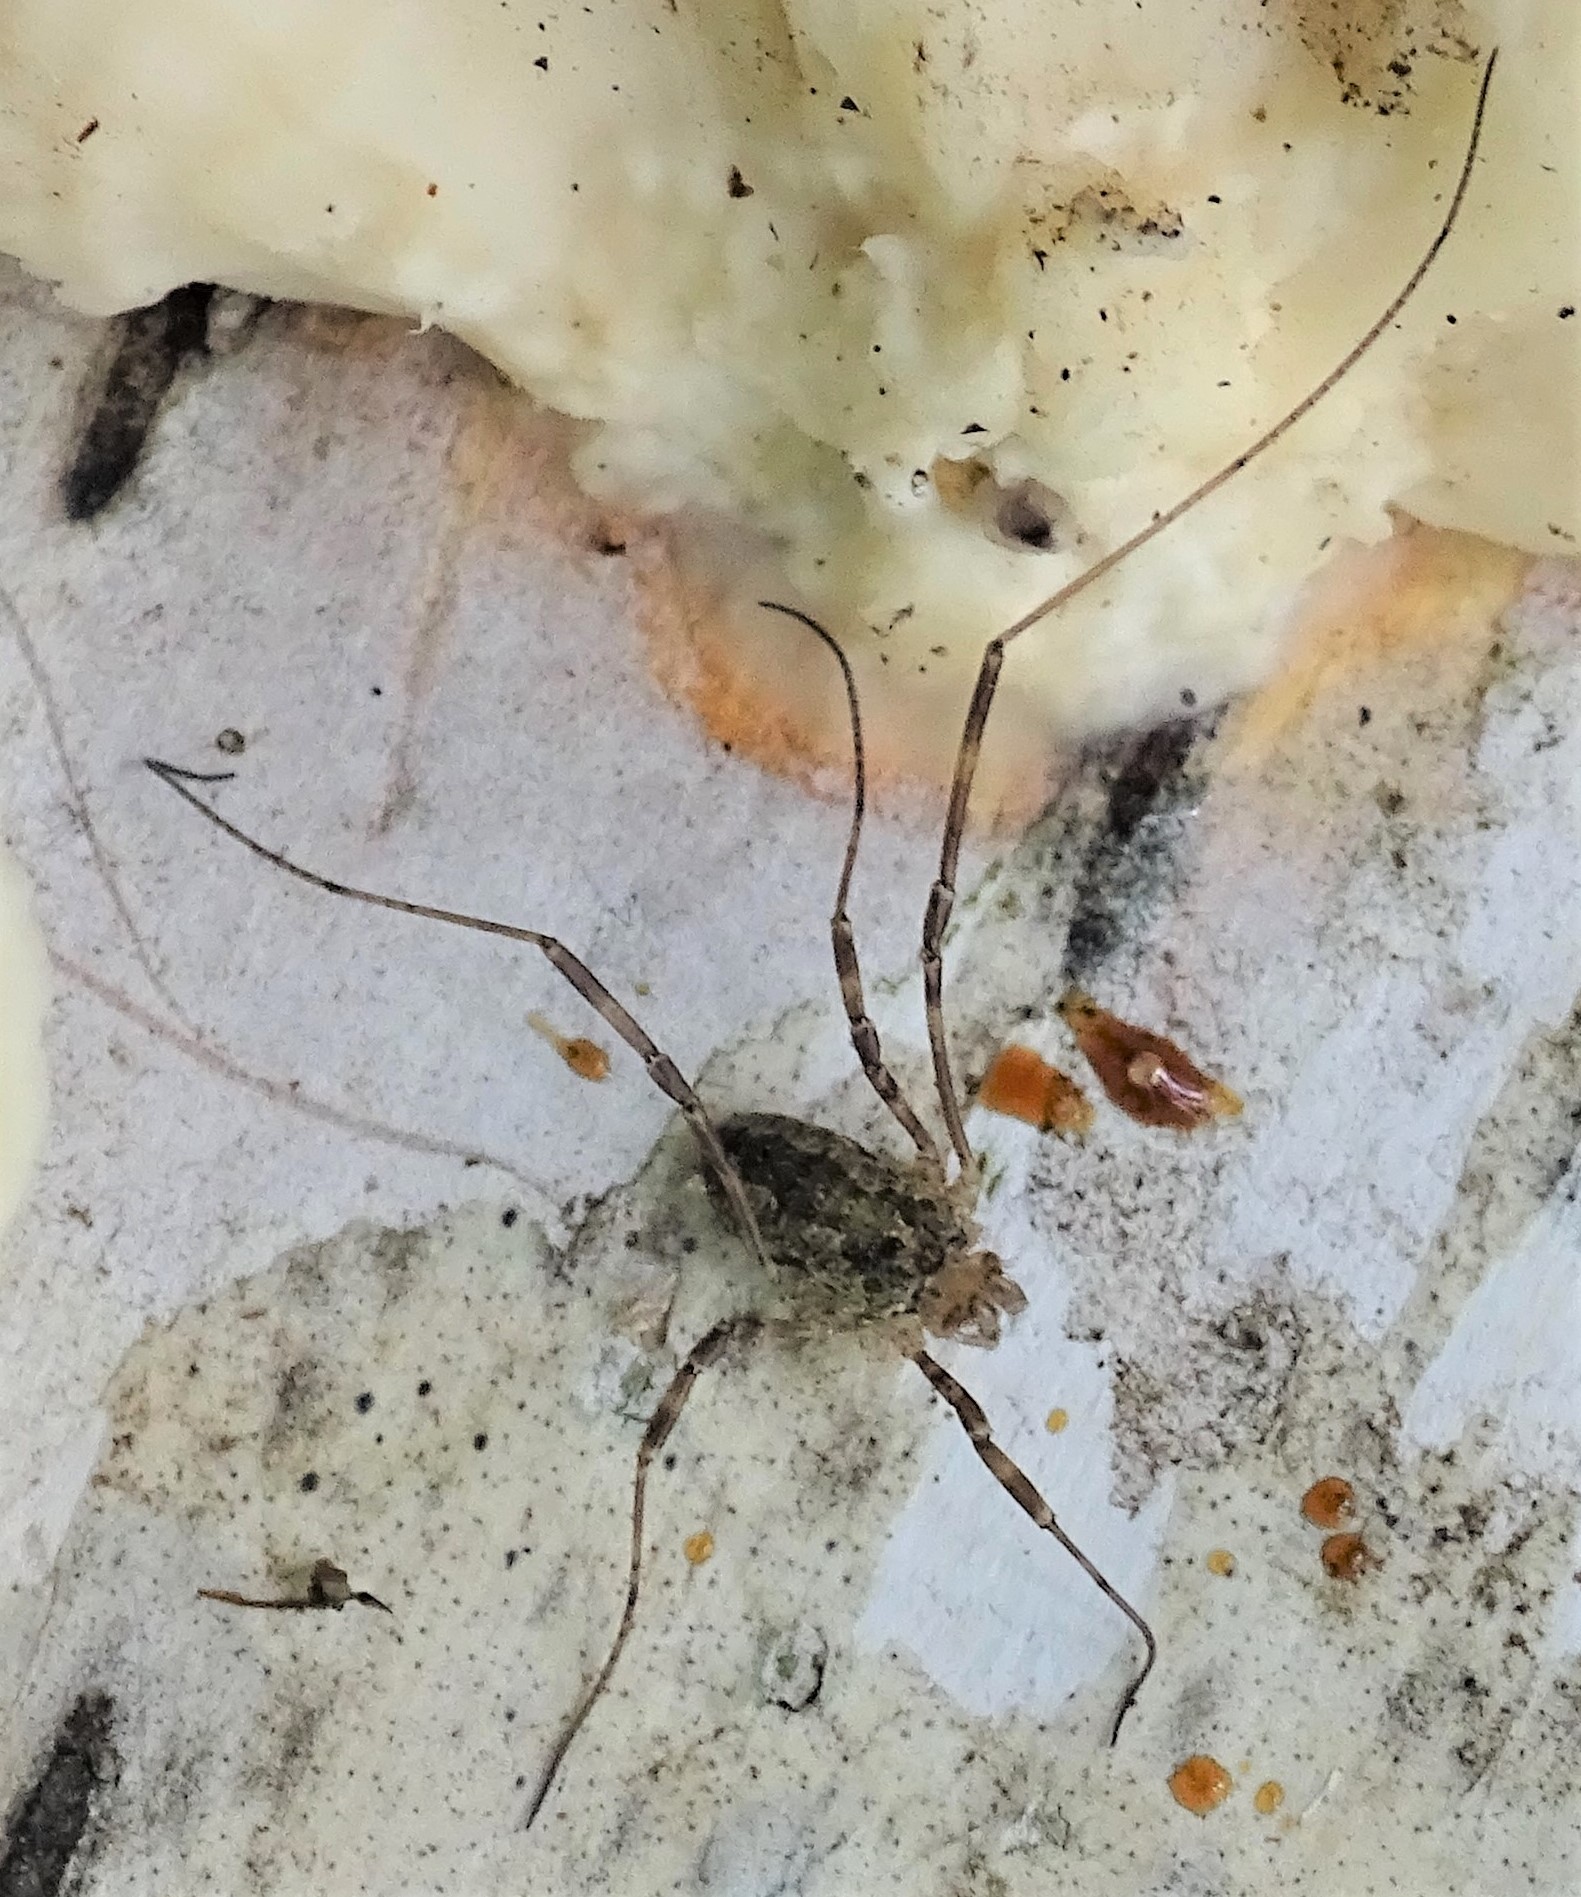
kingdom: Animalia
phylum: Arthropoda
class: Arachnida
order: Opiliones
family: Phalangiidae
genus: Odiellus
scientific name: Odiellus pictus
